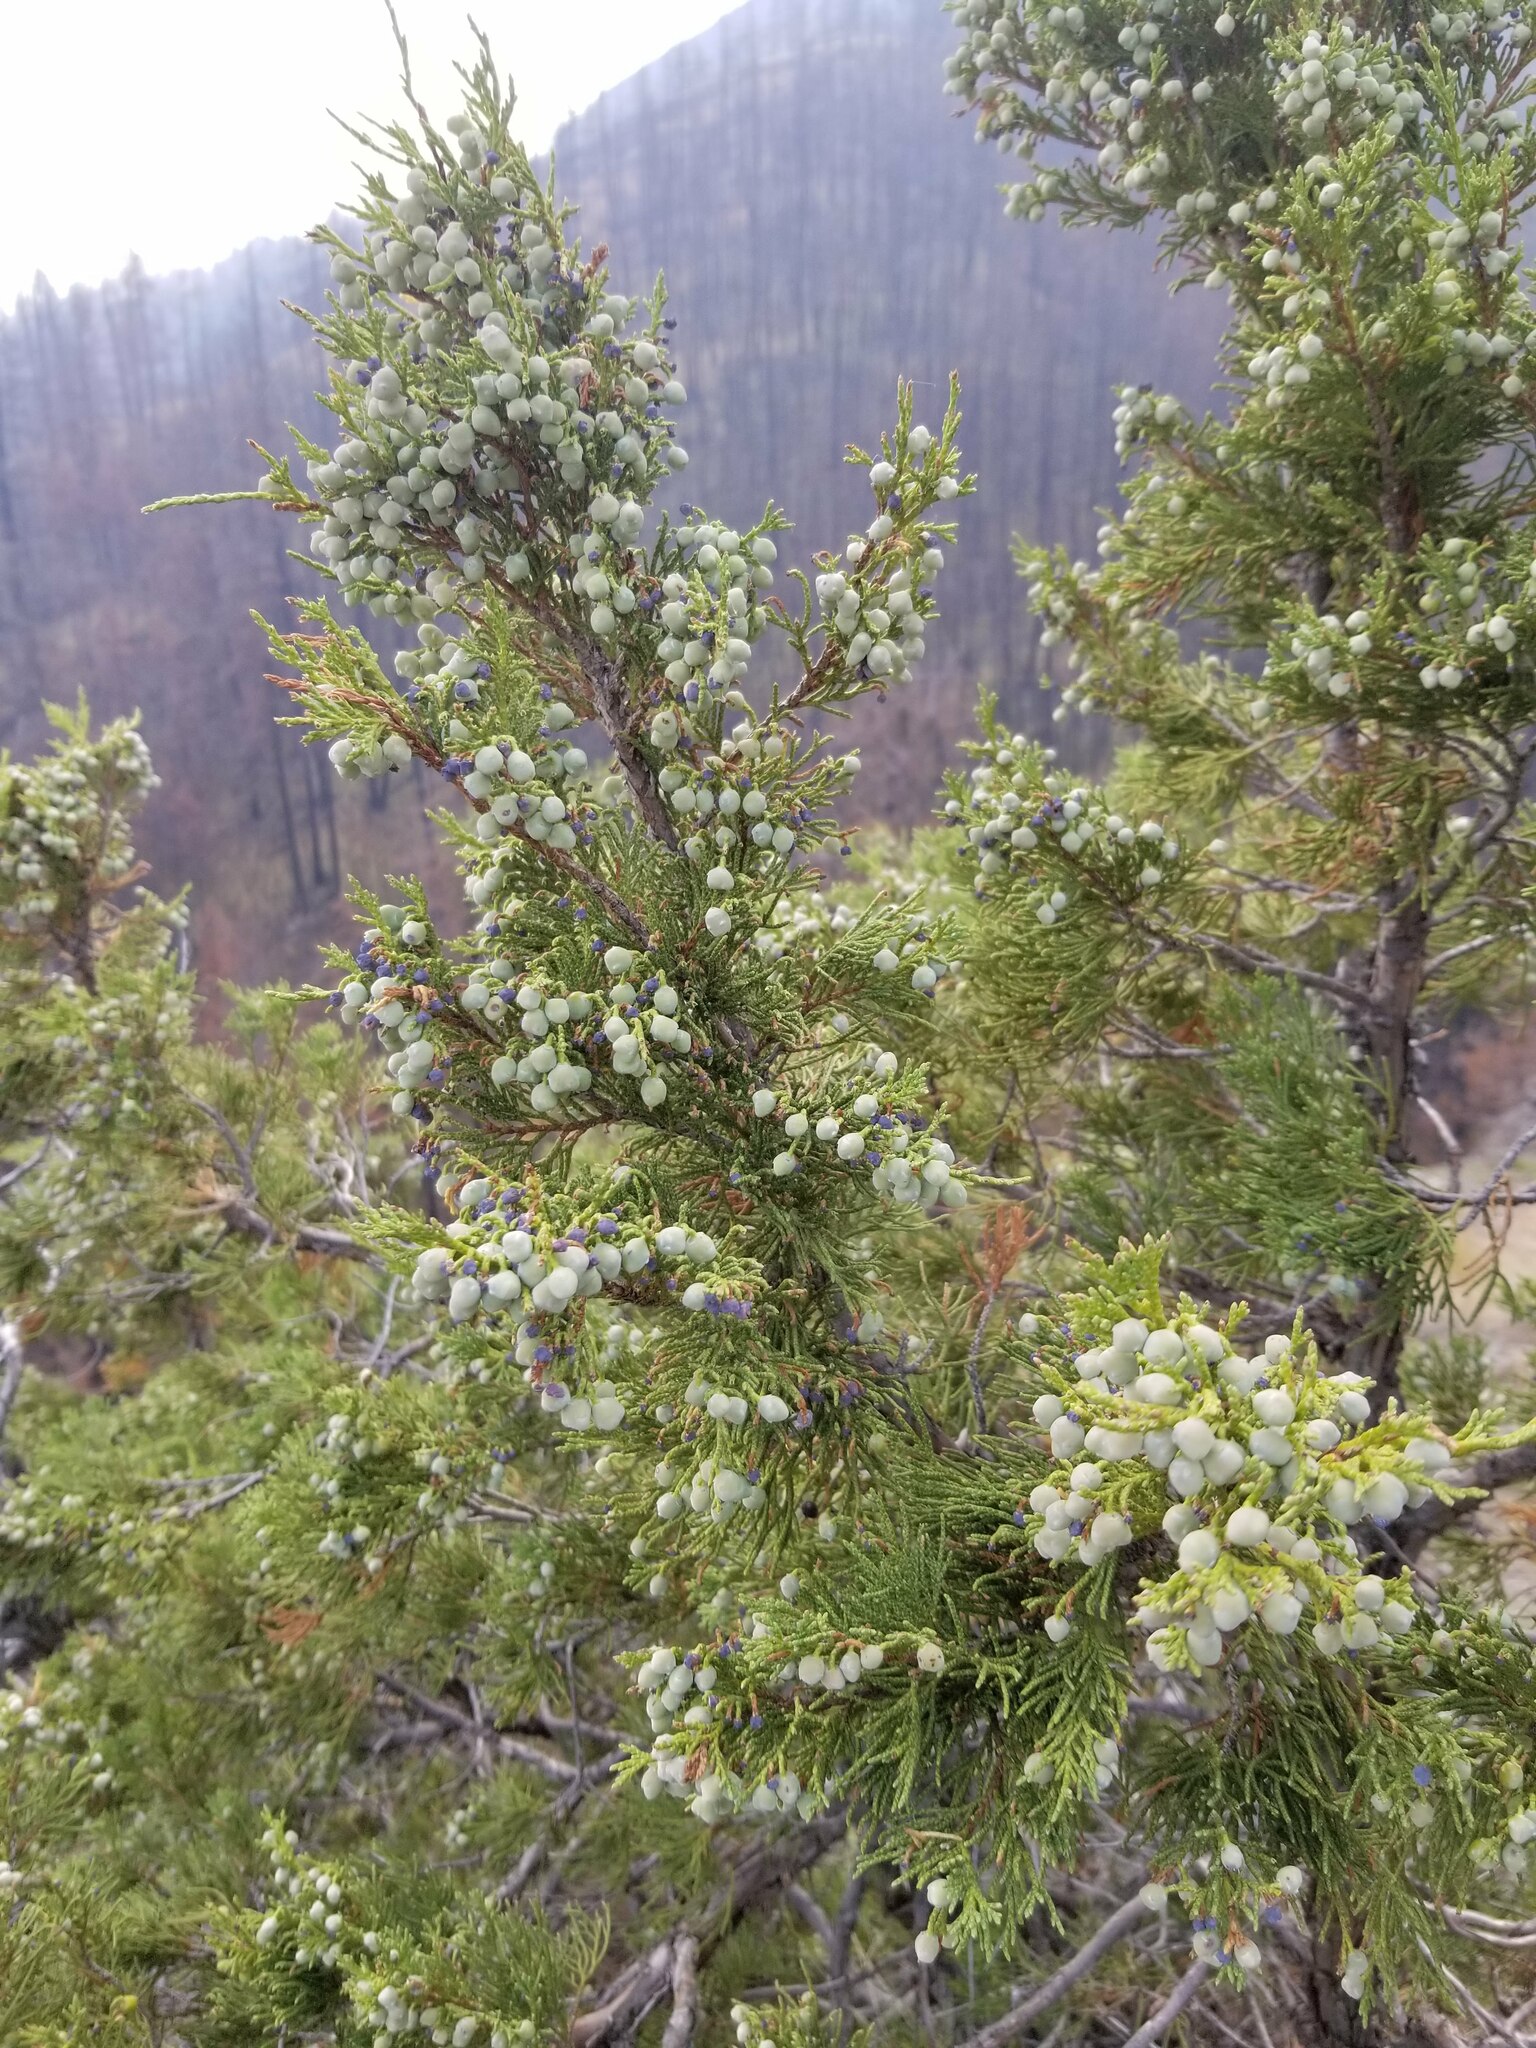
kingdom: Plantae
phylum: Tracheophyta
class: Pinopsida
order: Pinales
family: Cupressaceae
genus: Juniperus
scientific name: Juniperus scopulorum
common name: Rocky mountain juniper
